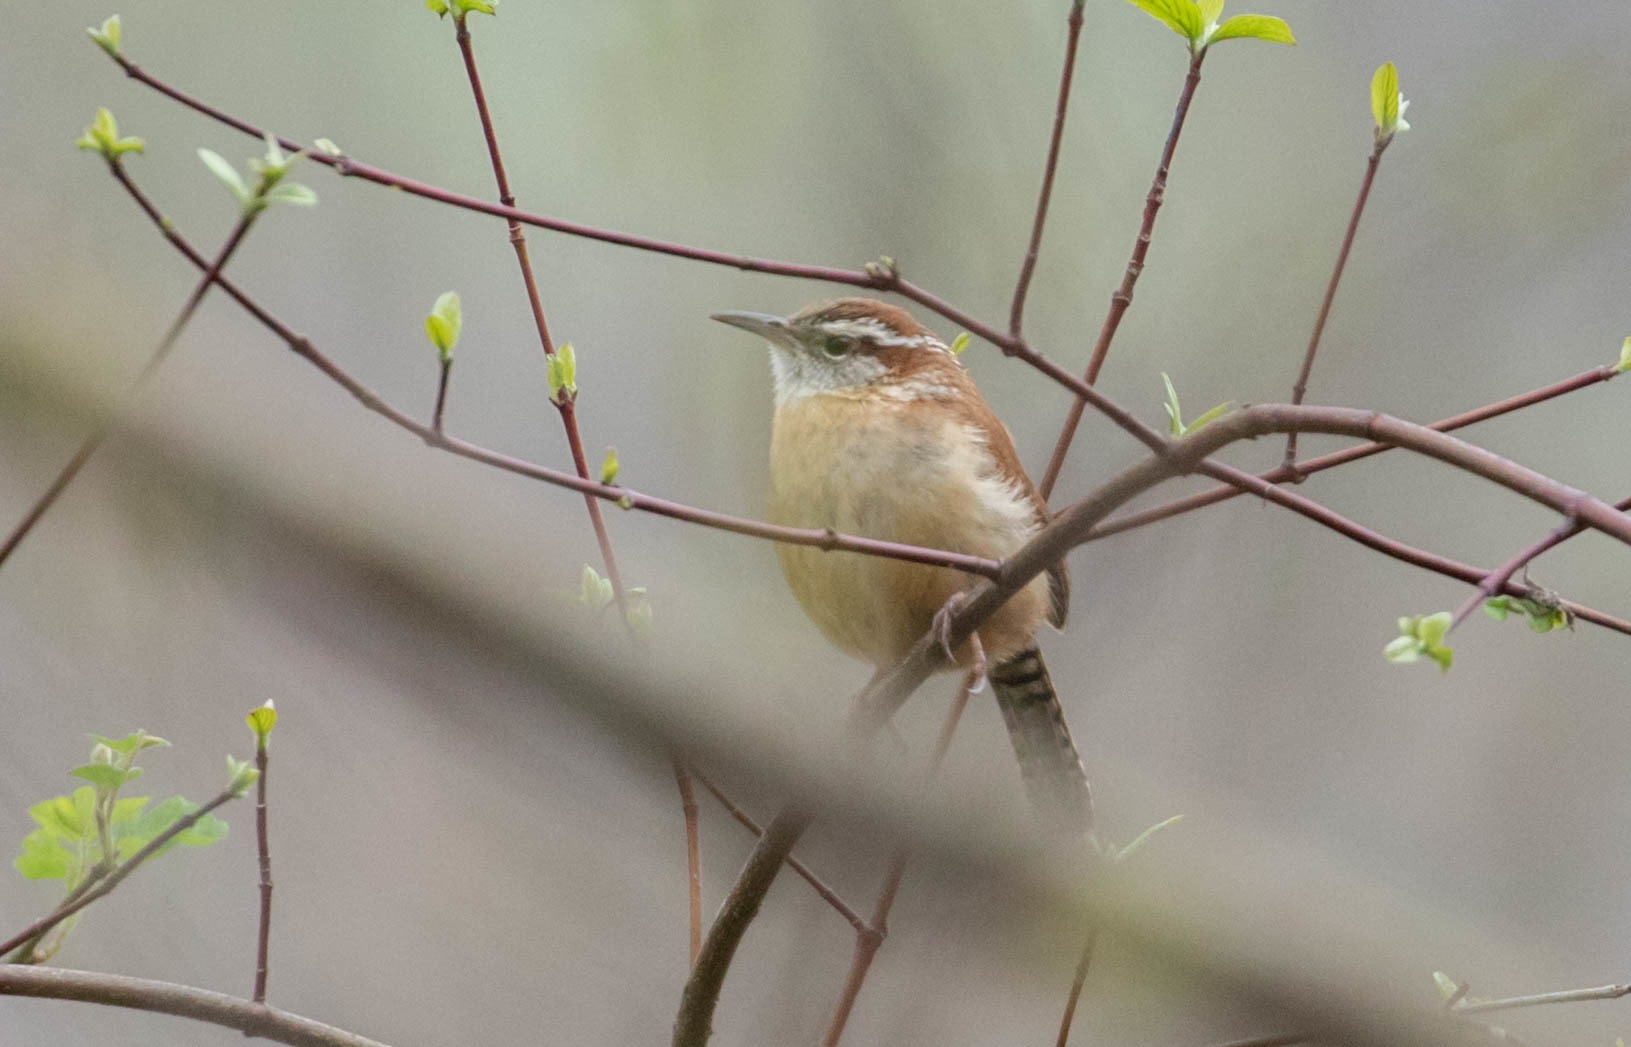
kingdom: Animalia
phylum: Chordata
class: Aves
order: Passeriformes
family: Troglodytidae
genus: Thryothorus
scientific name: Thryothorus ludovicianus
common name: Carolina wren
